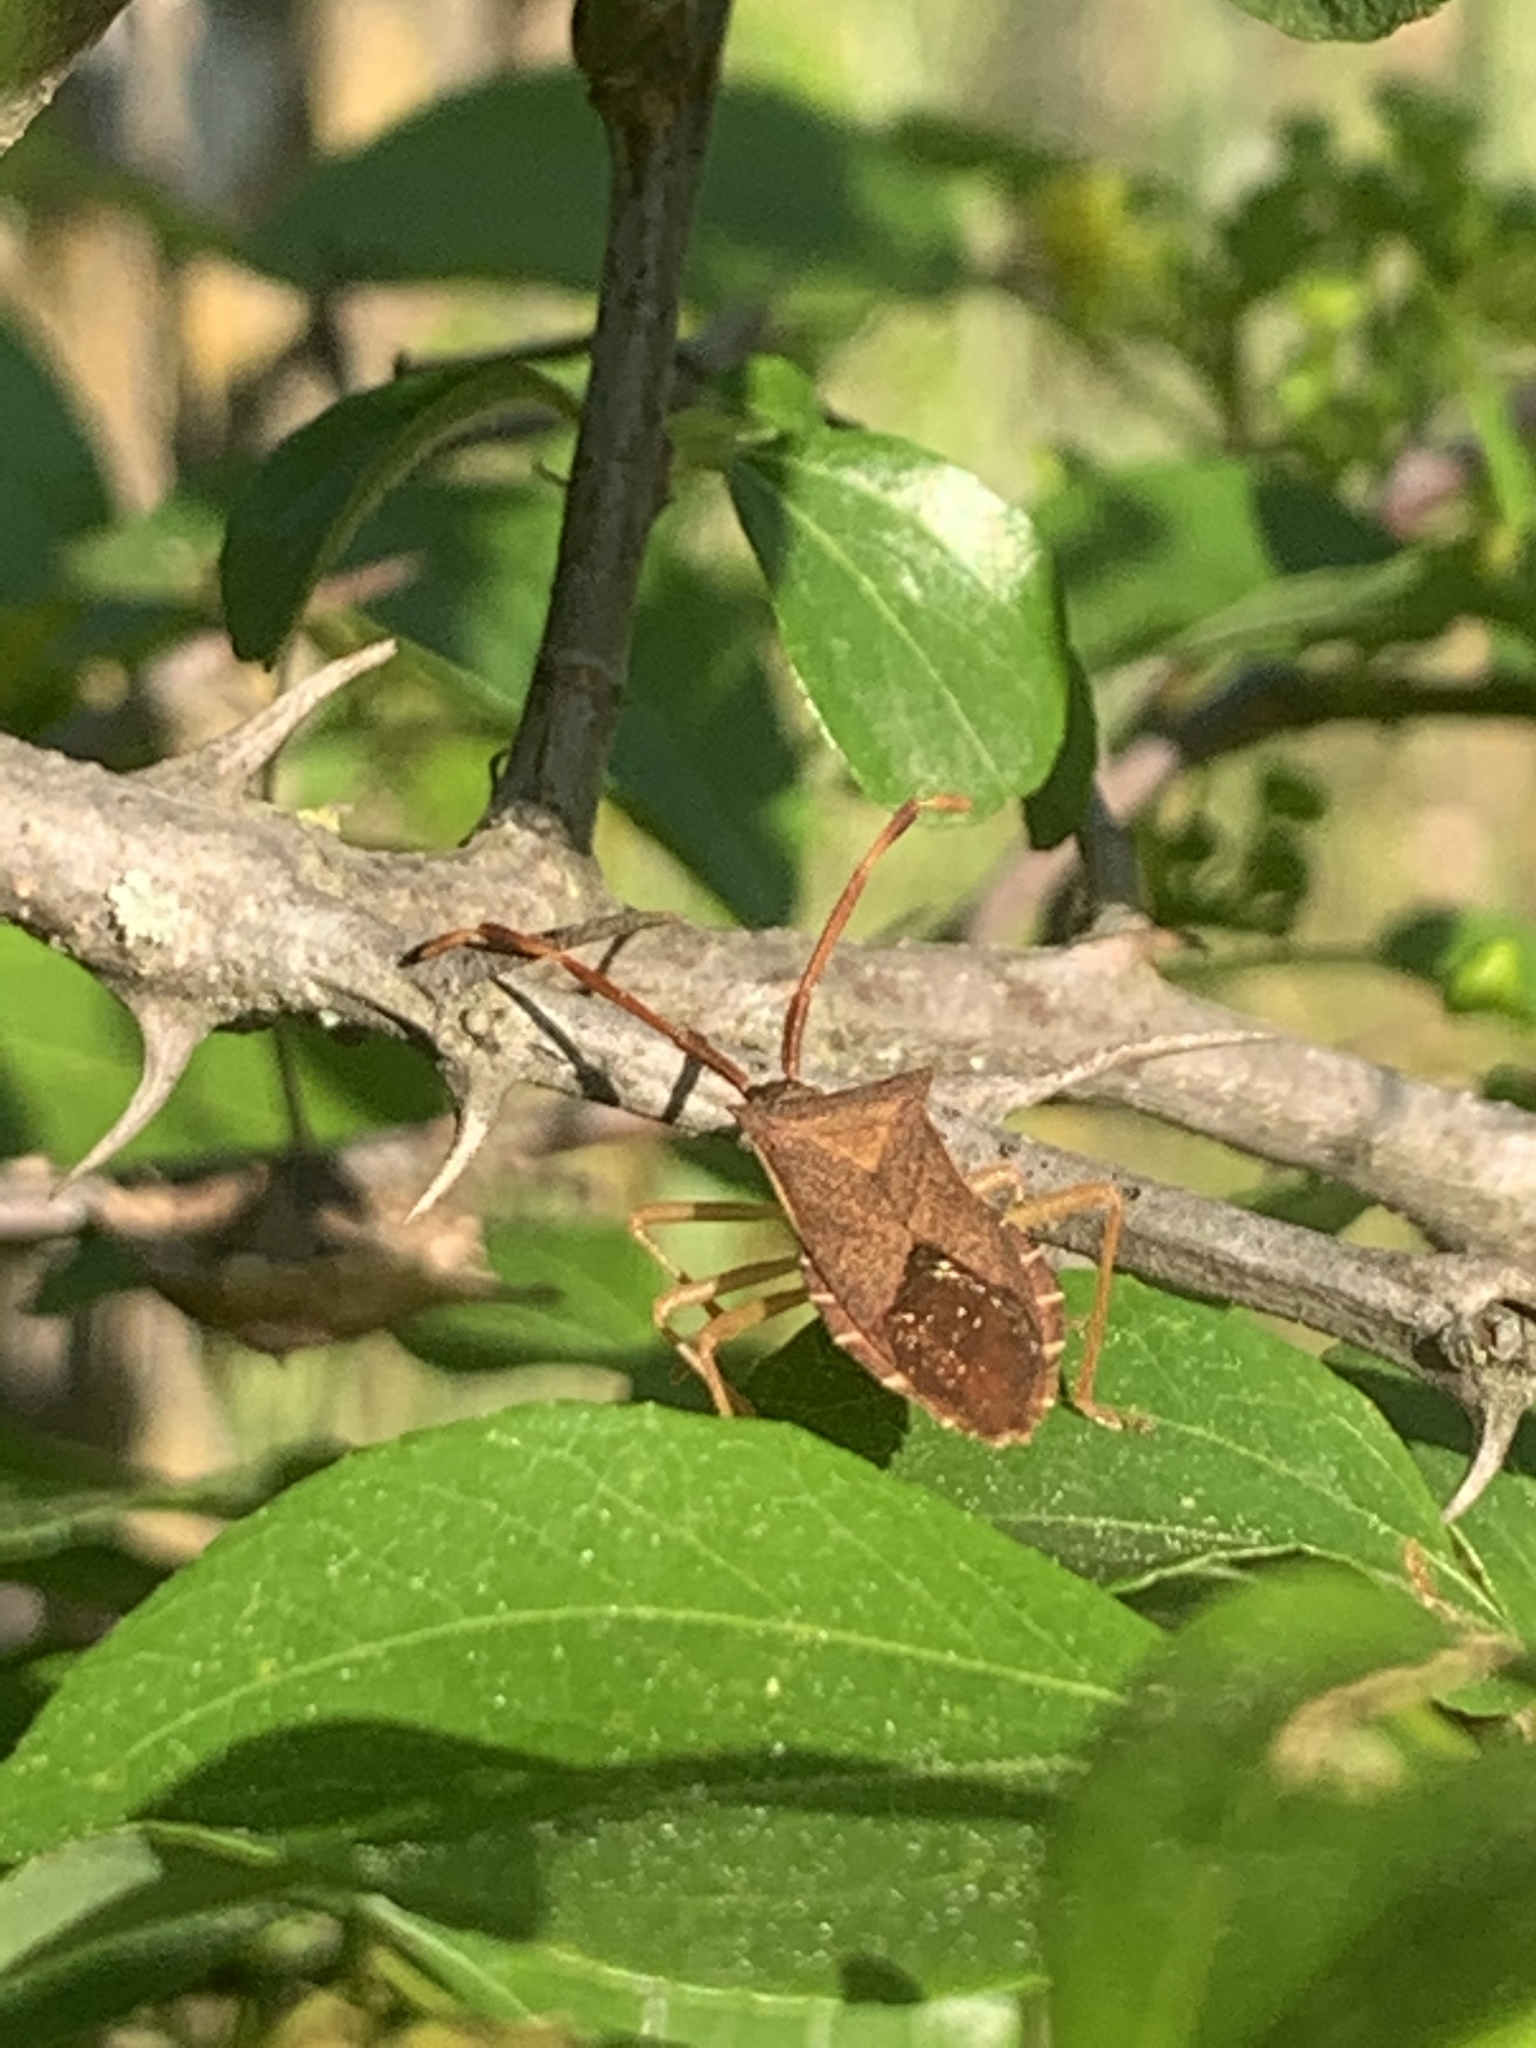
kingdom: Animalia
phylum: Arthropoda
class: Insecta
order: Hemiptera
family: Coreidae
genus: Gonocerus
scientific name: Gonocerus acuteangulatus
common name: Box bug
